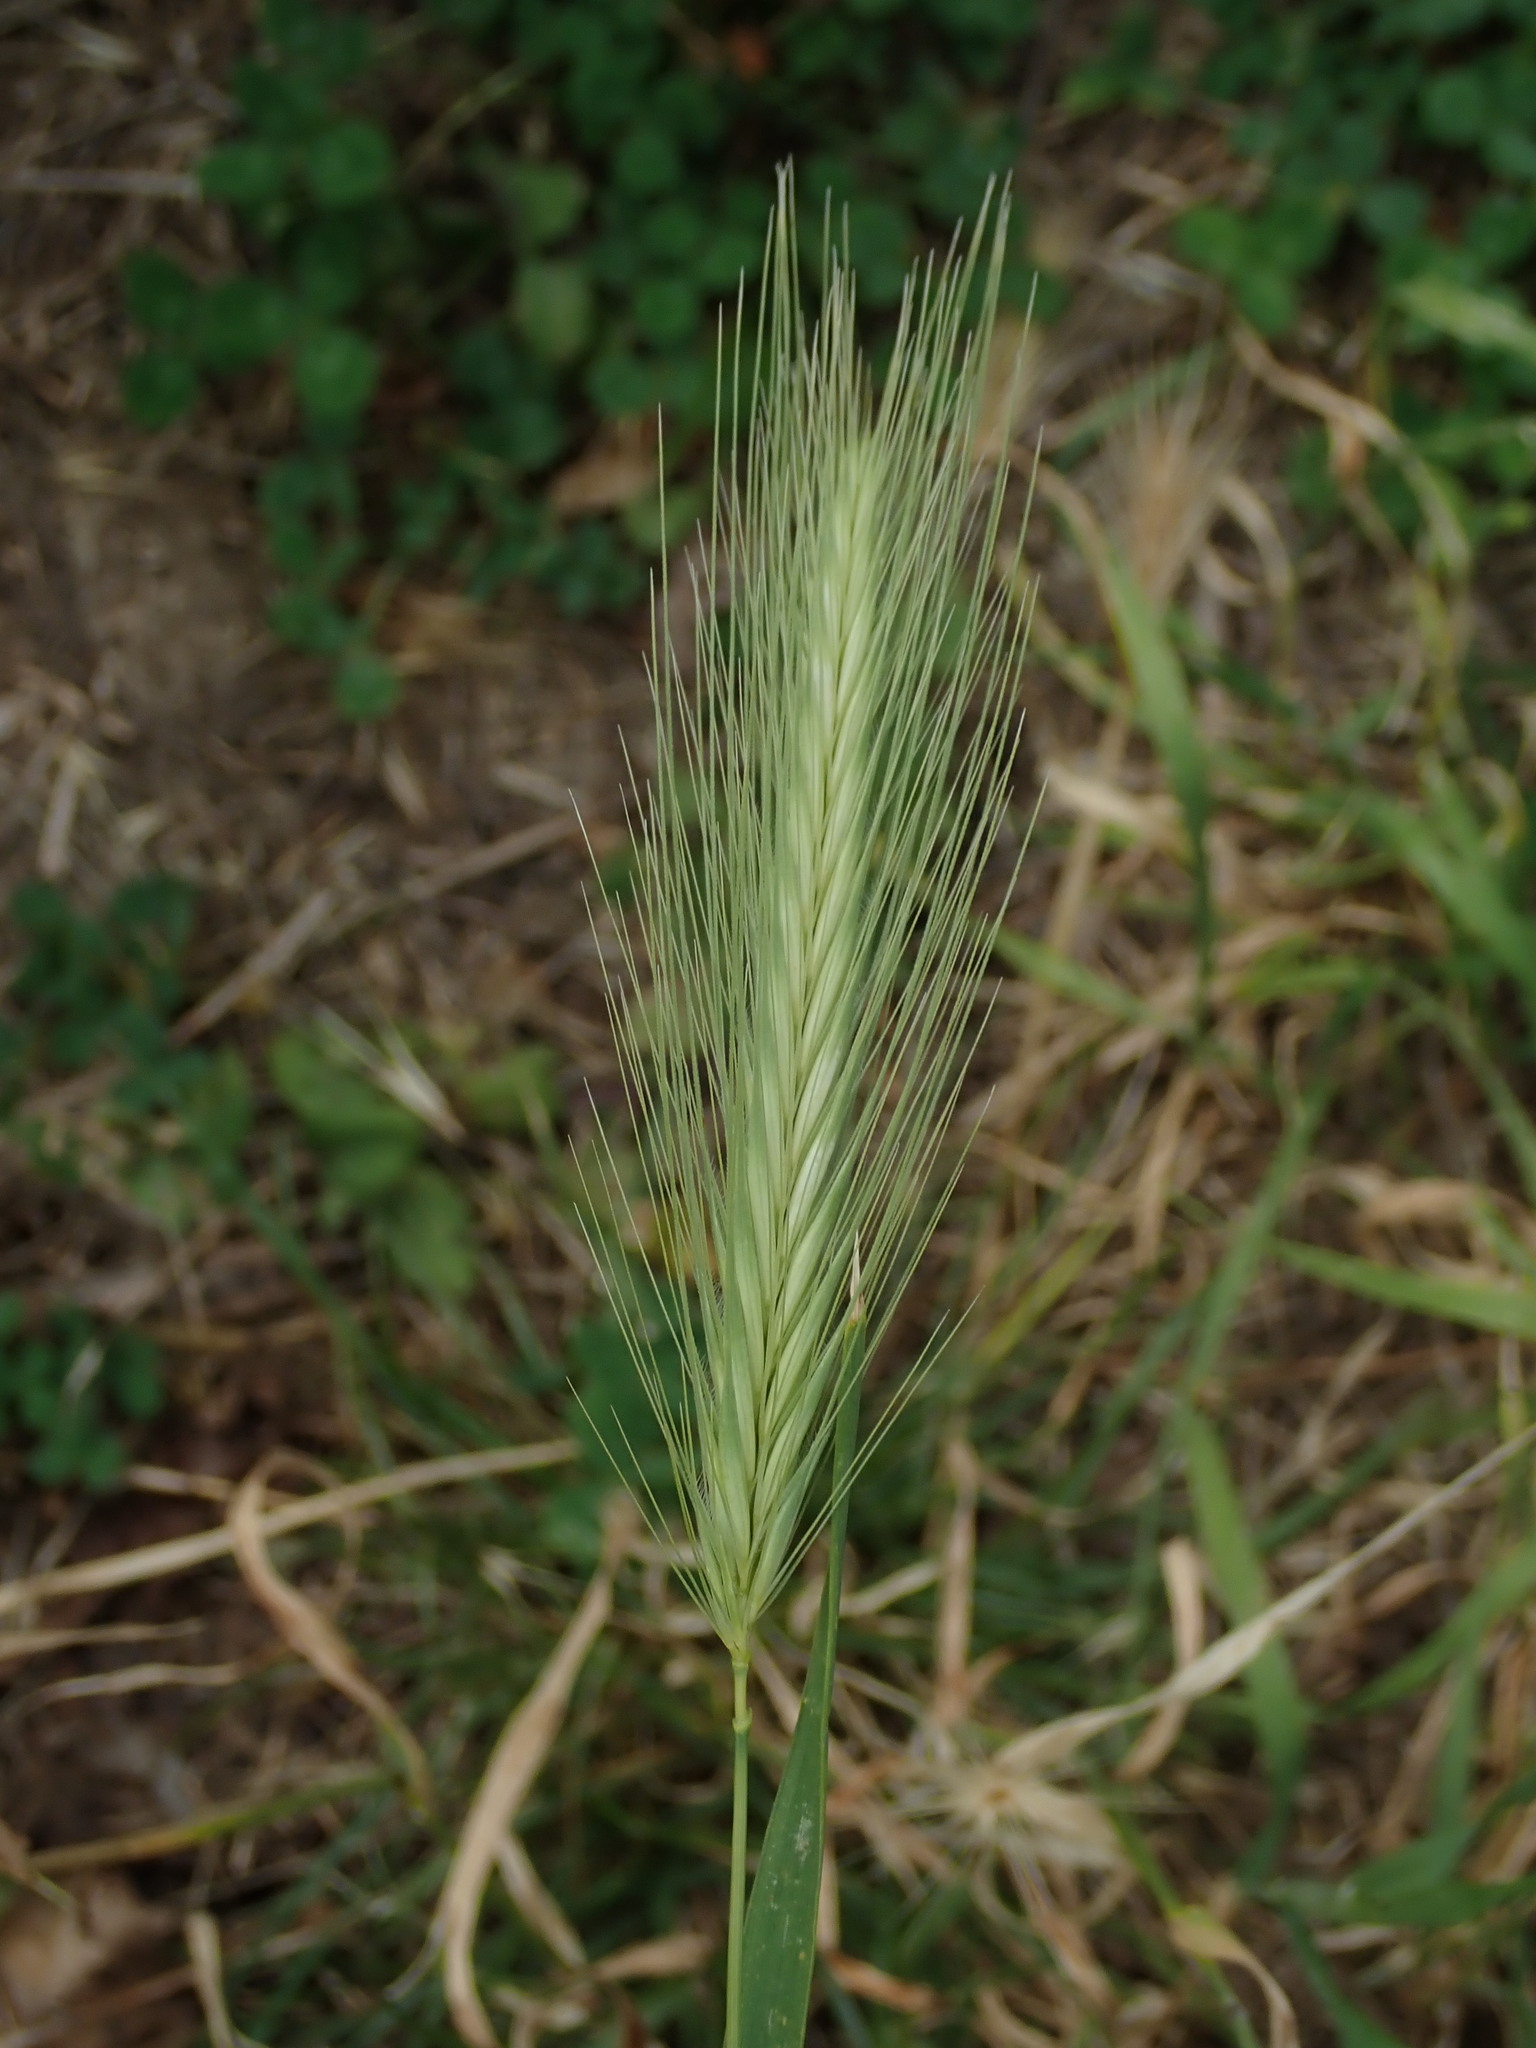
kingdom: Plantae
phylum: Tracheophyta
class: Liliopsida
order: Poales
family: Poaceae
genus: Hordeum
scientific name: Hordeum murinum
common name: Wall barley
